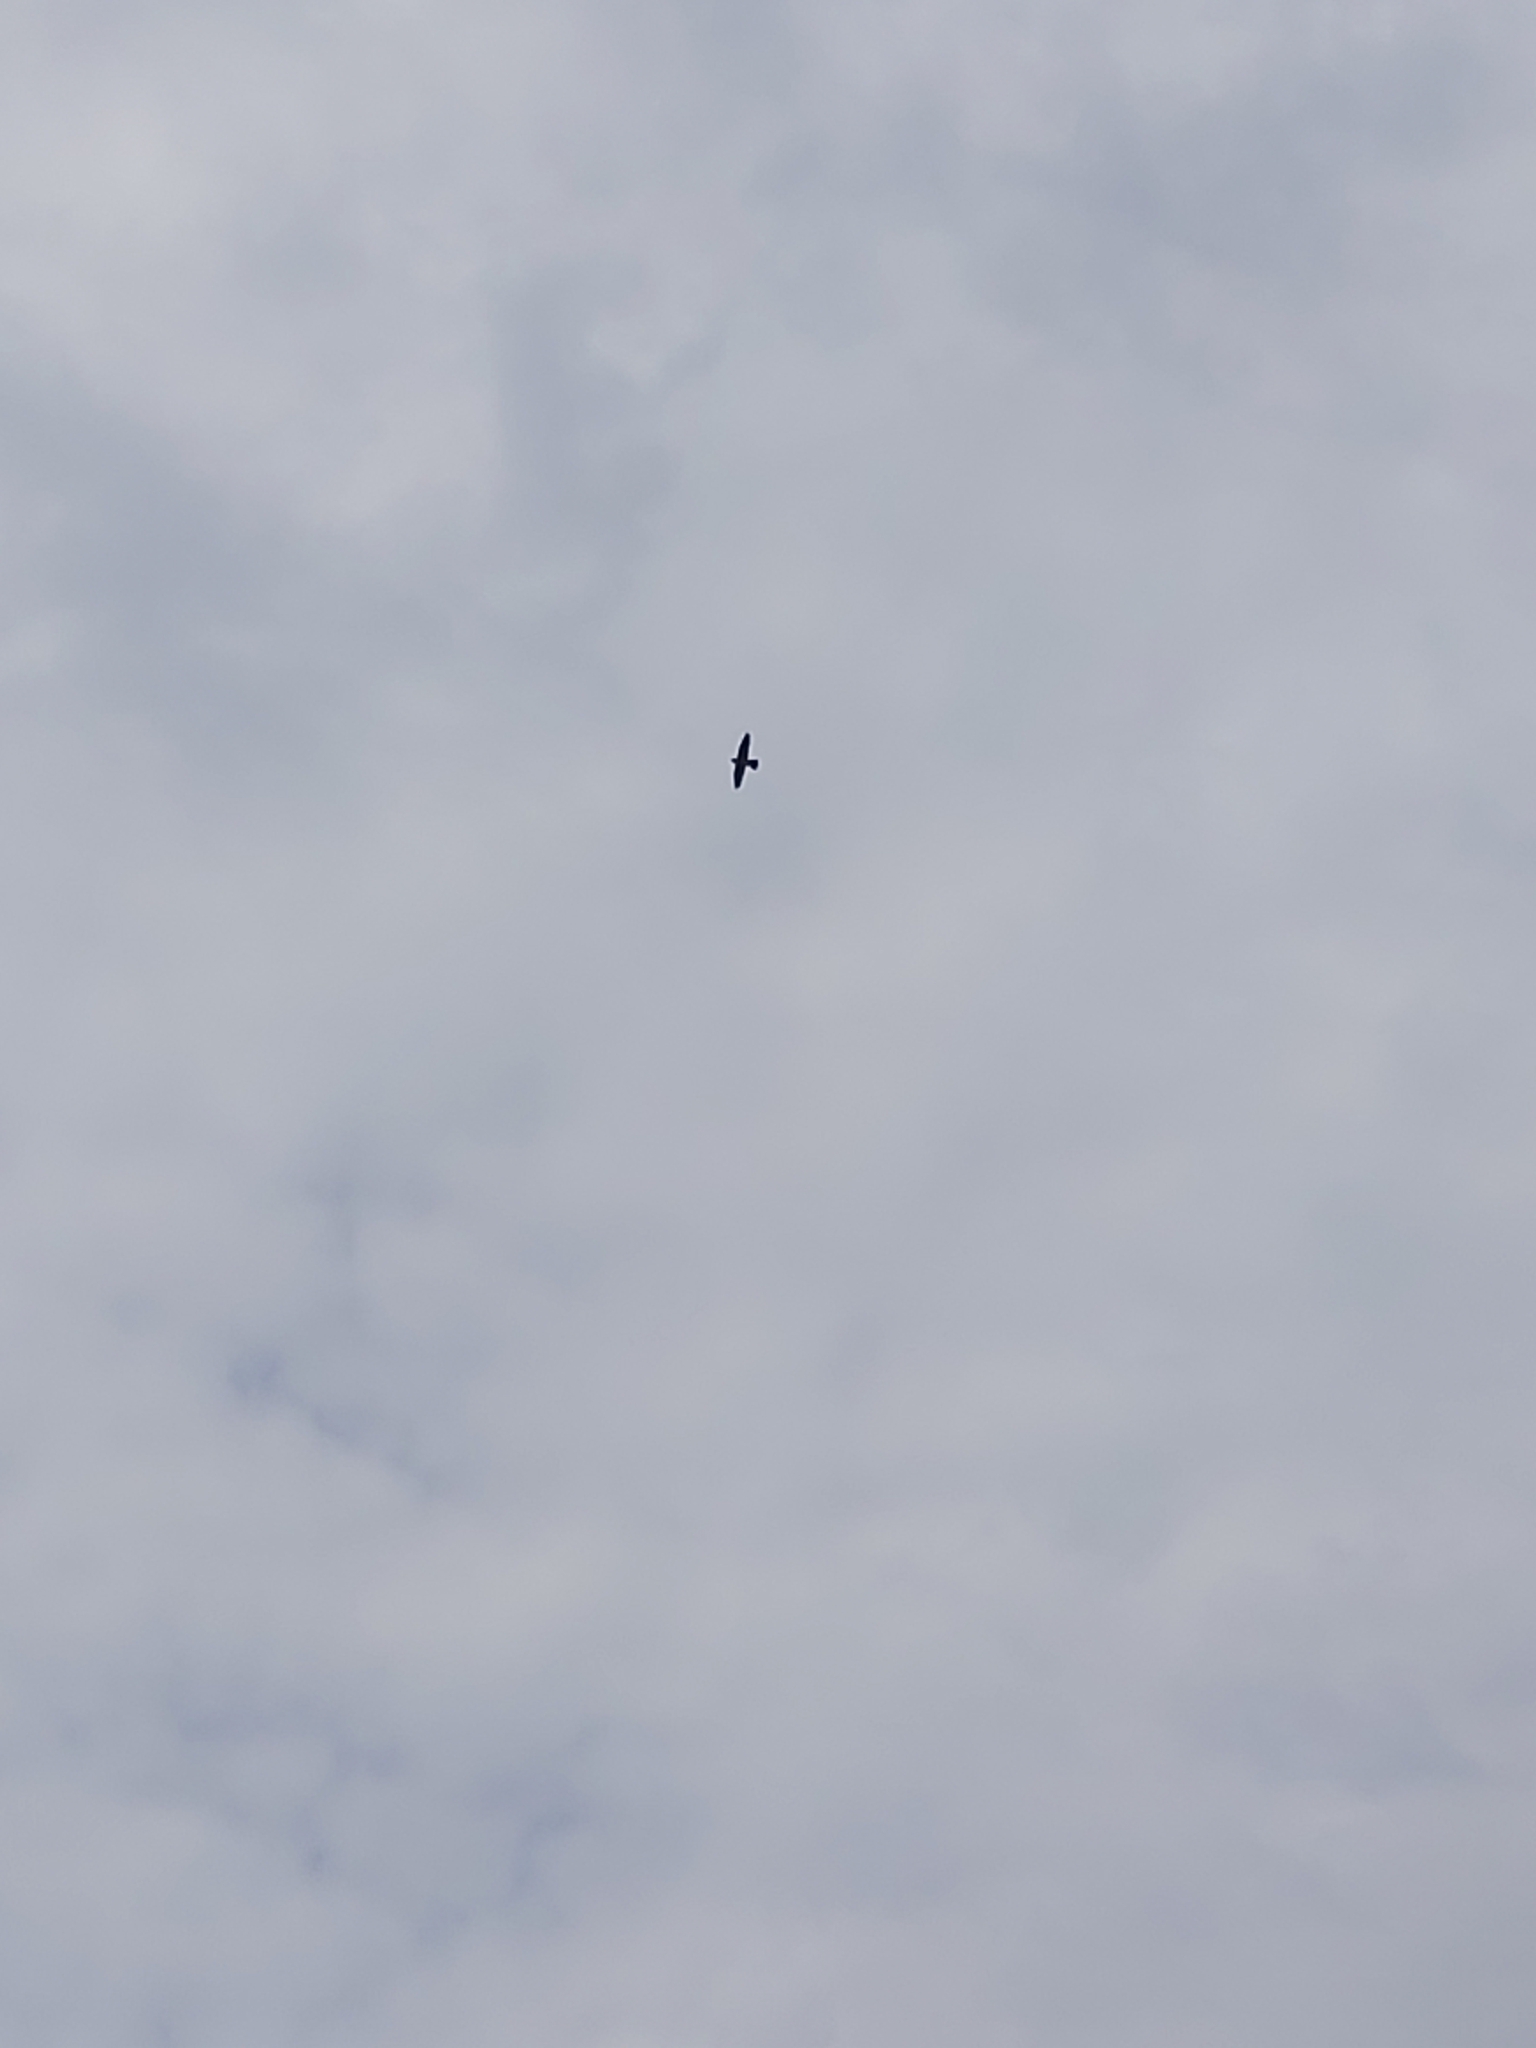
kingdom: Animalia
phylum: Chordata
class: Aves
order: Falconiformes
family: Falconidae
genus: Falco
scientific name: Falco peregrinus
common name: Peregrine falcon
